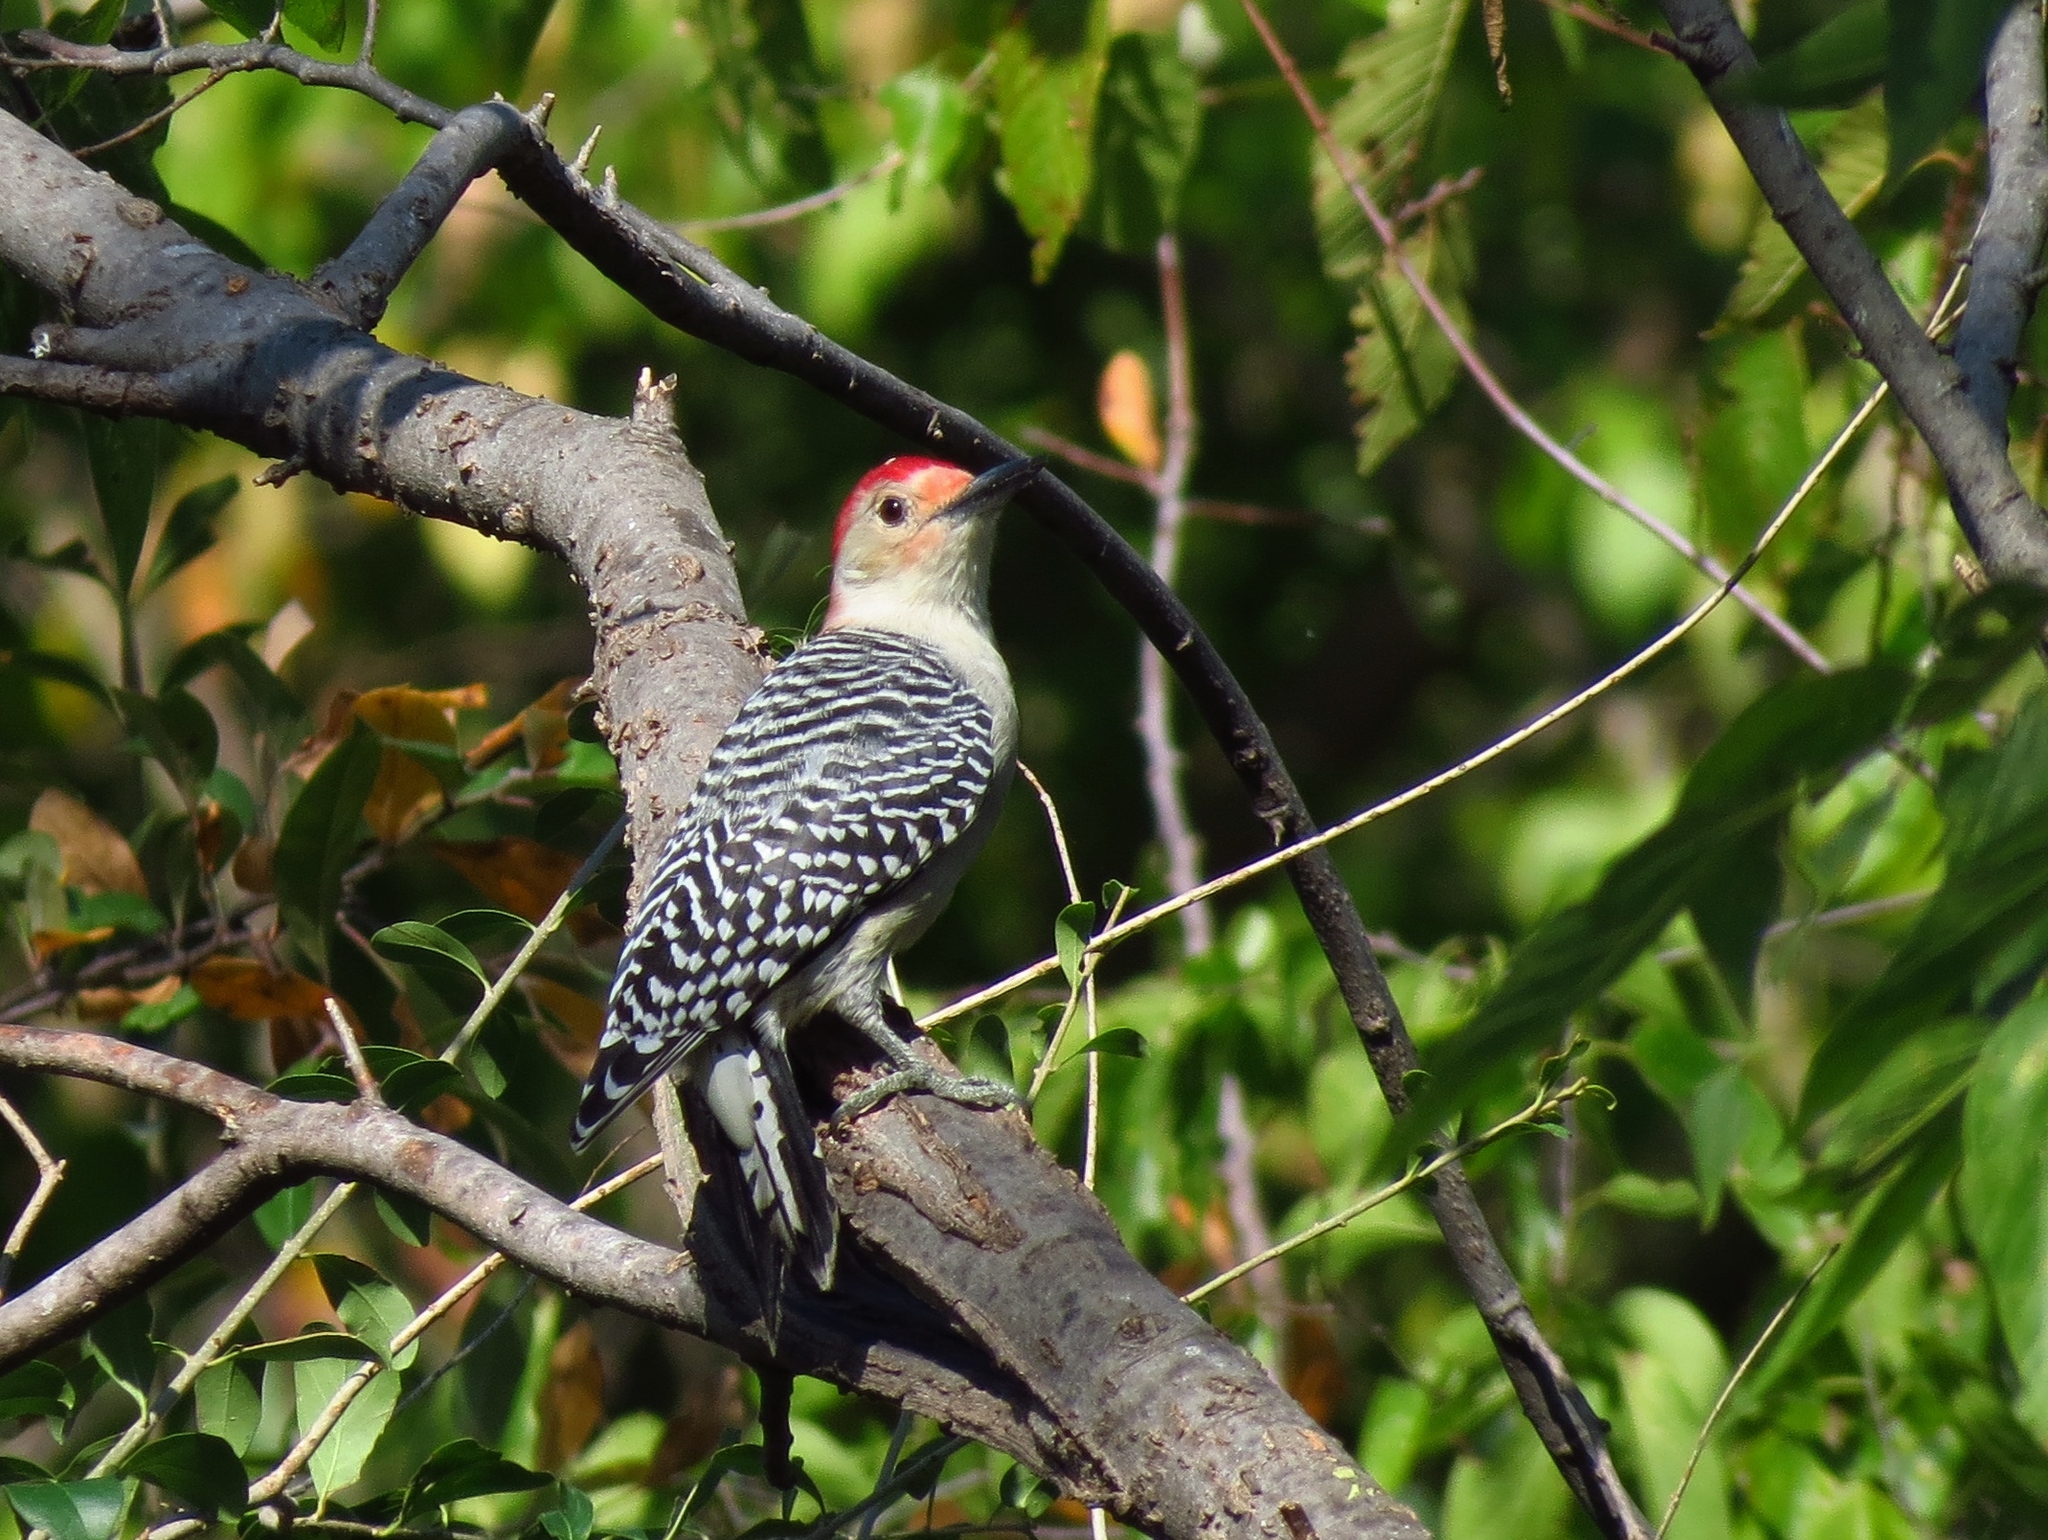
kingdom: Animalia
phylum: Chordata
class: Aves
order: Piciformes
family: Picidae
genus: Melanerpes
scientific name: Melanerpes carolinus
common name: Red-bellied woodpecker
